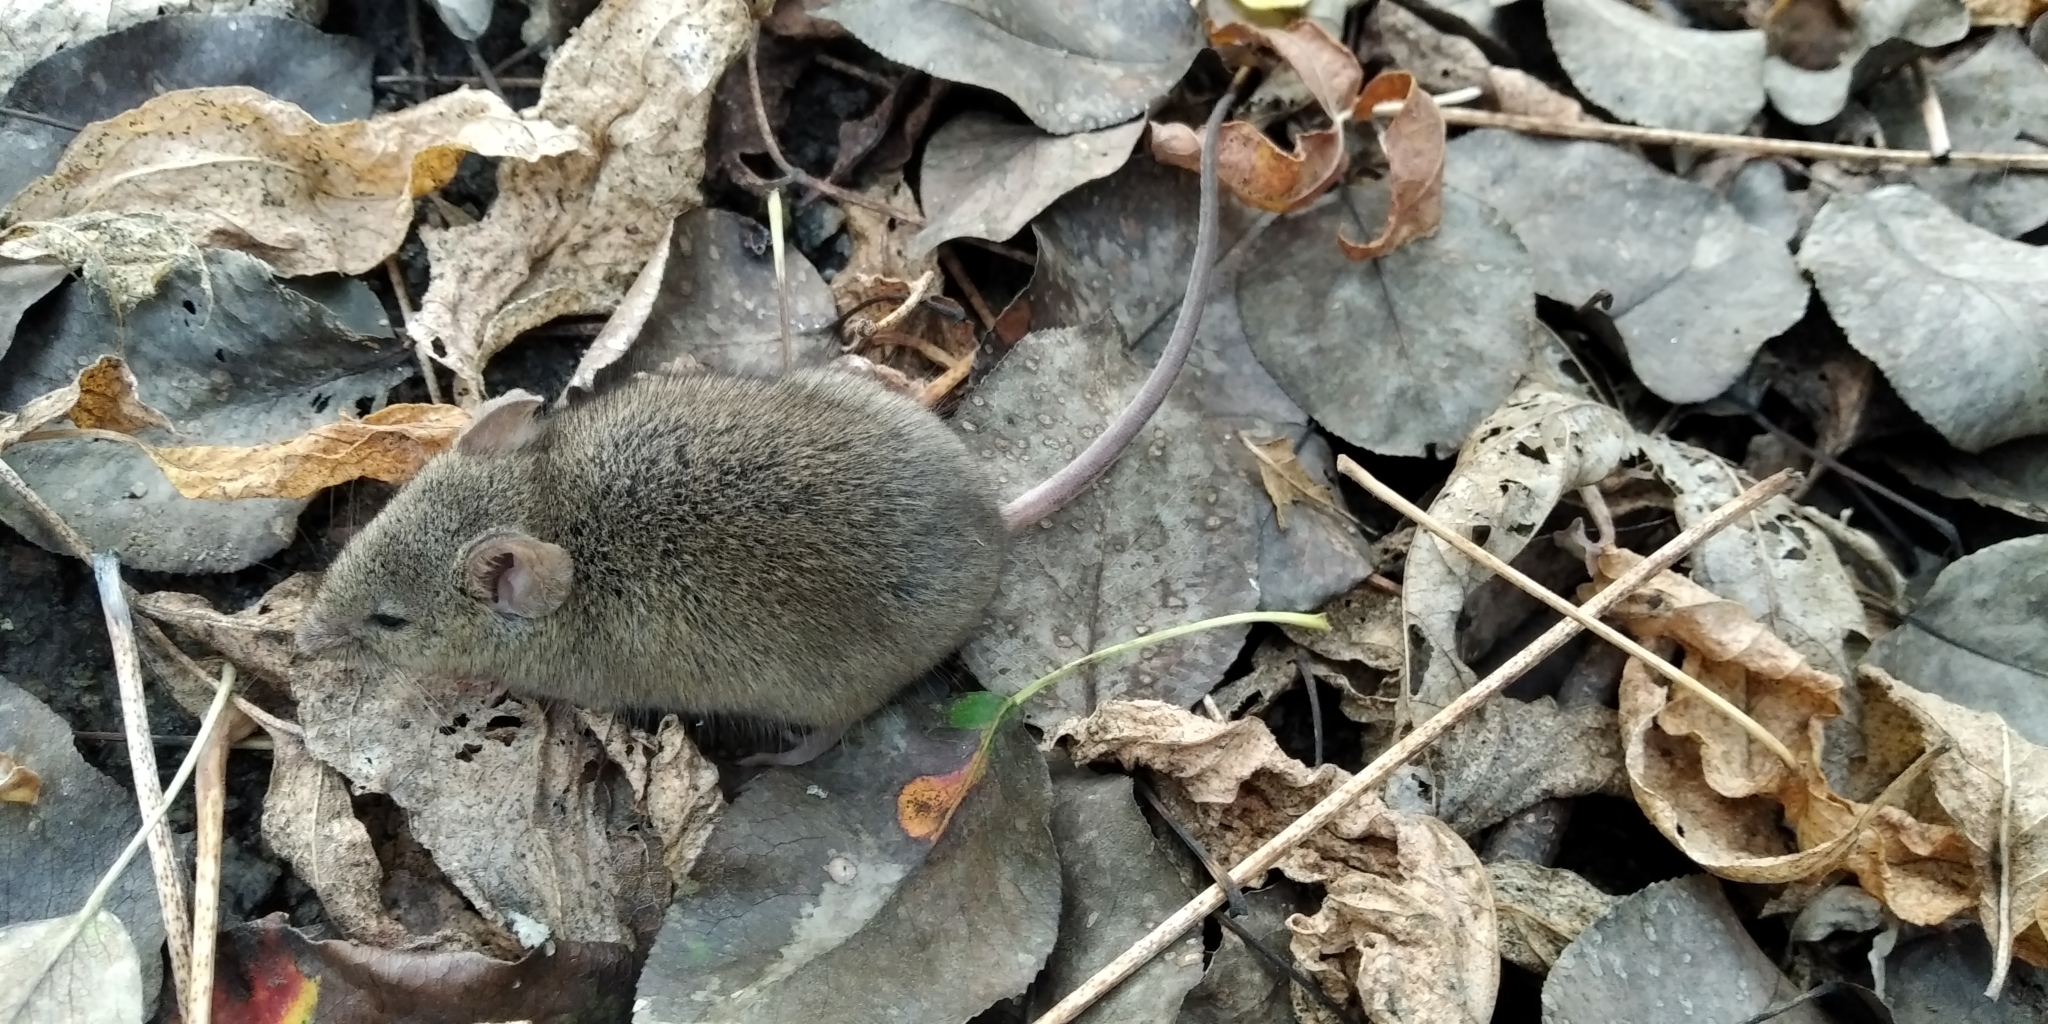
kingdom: Animalia
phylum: Chordata
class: Mammalia
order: Rodentia
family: Muridae
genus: Mus
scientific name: Mus musculus
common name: House mouse
